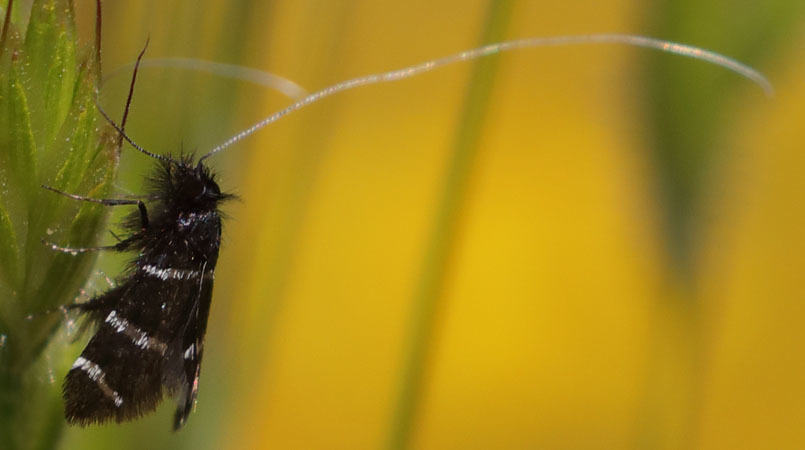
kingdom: Animalia
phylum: Arthropoda
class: Insecta
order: Lepidoptera
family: Adelidae
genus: Adela
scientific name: Adela trigrapha
